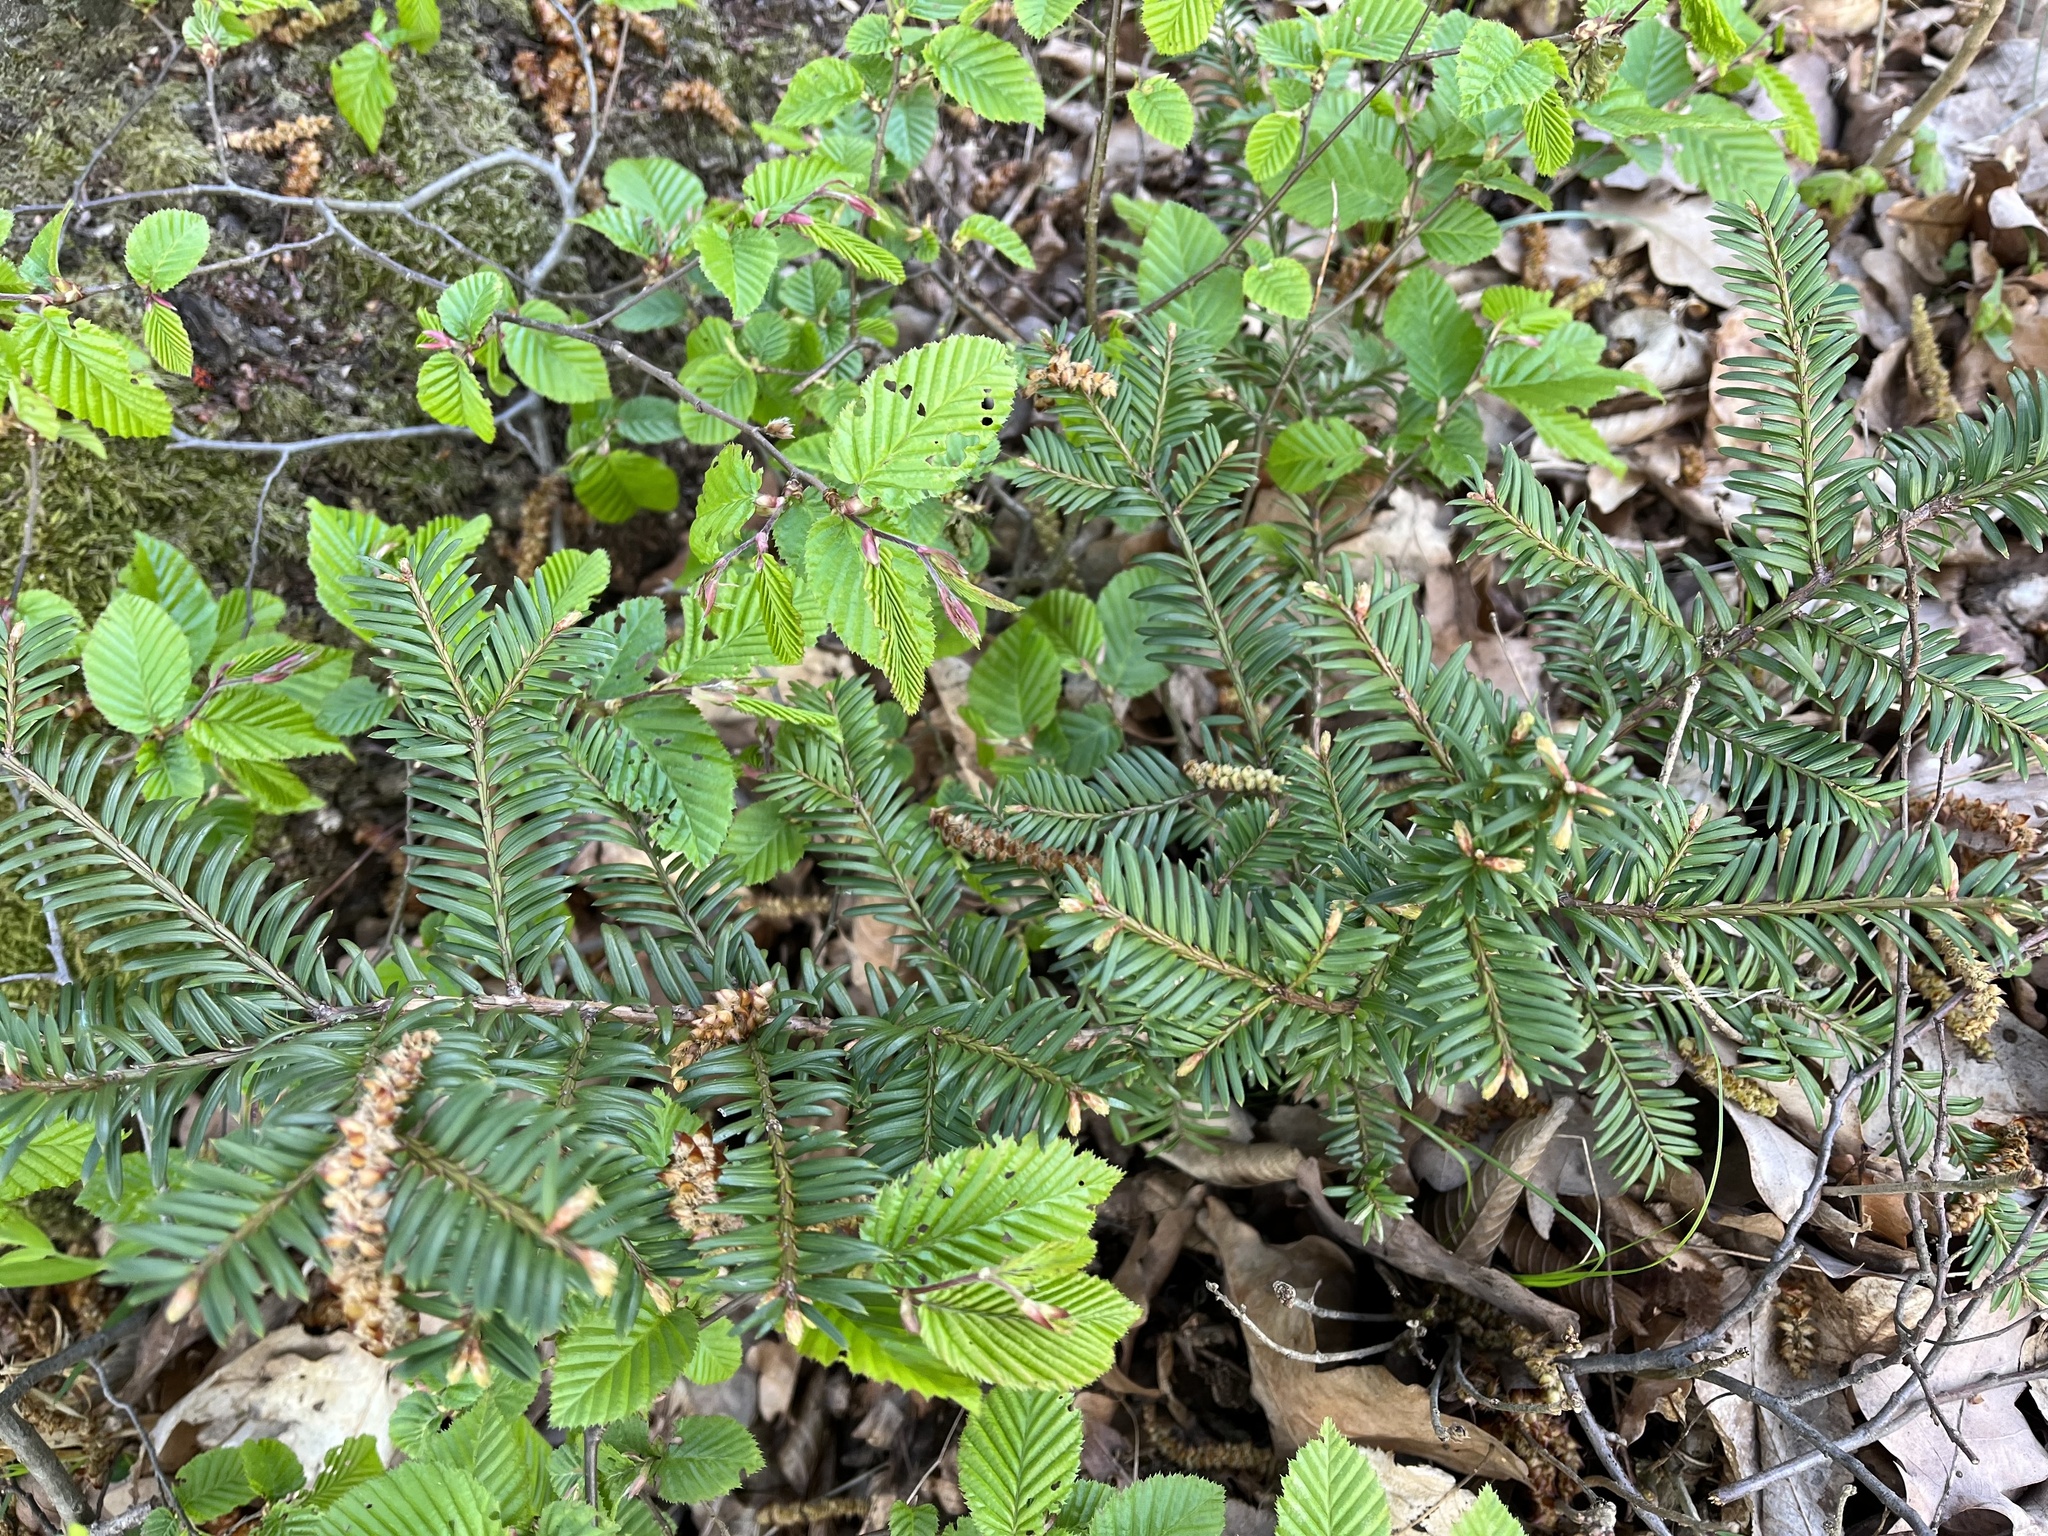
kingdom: Plantae
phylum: Tracheophyta
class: Pinopsida
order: Pinales
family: Taxaceae
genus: Taxus
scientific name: Taxus baccata
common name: Yew
